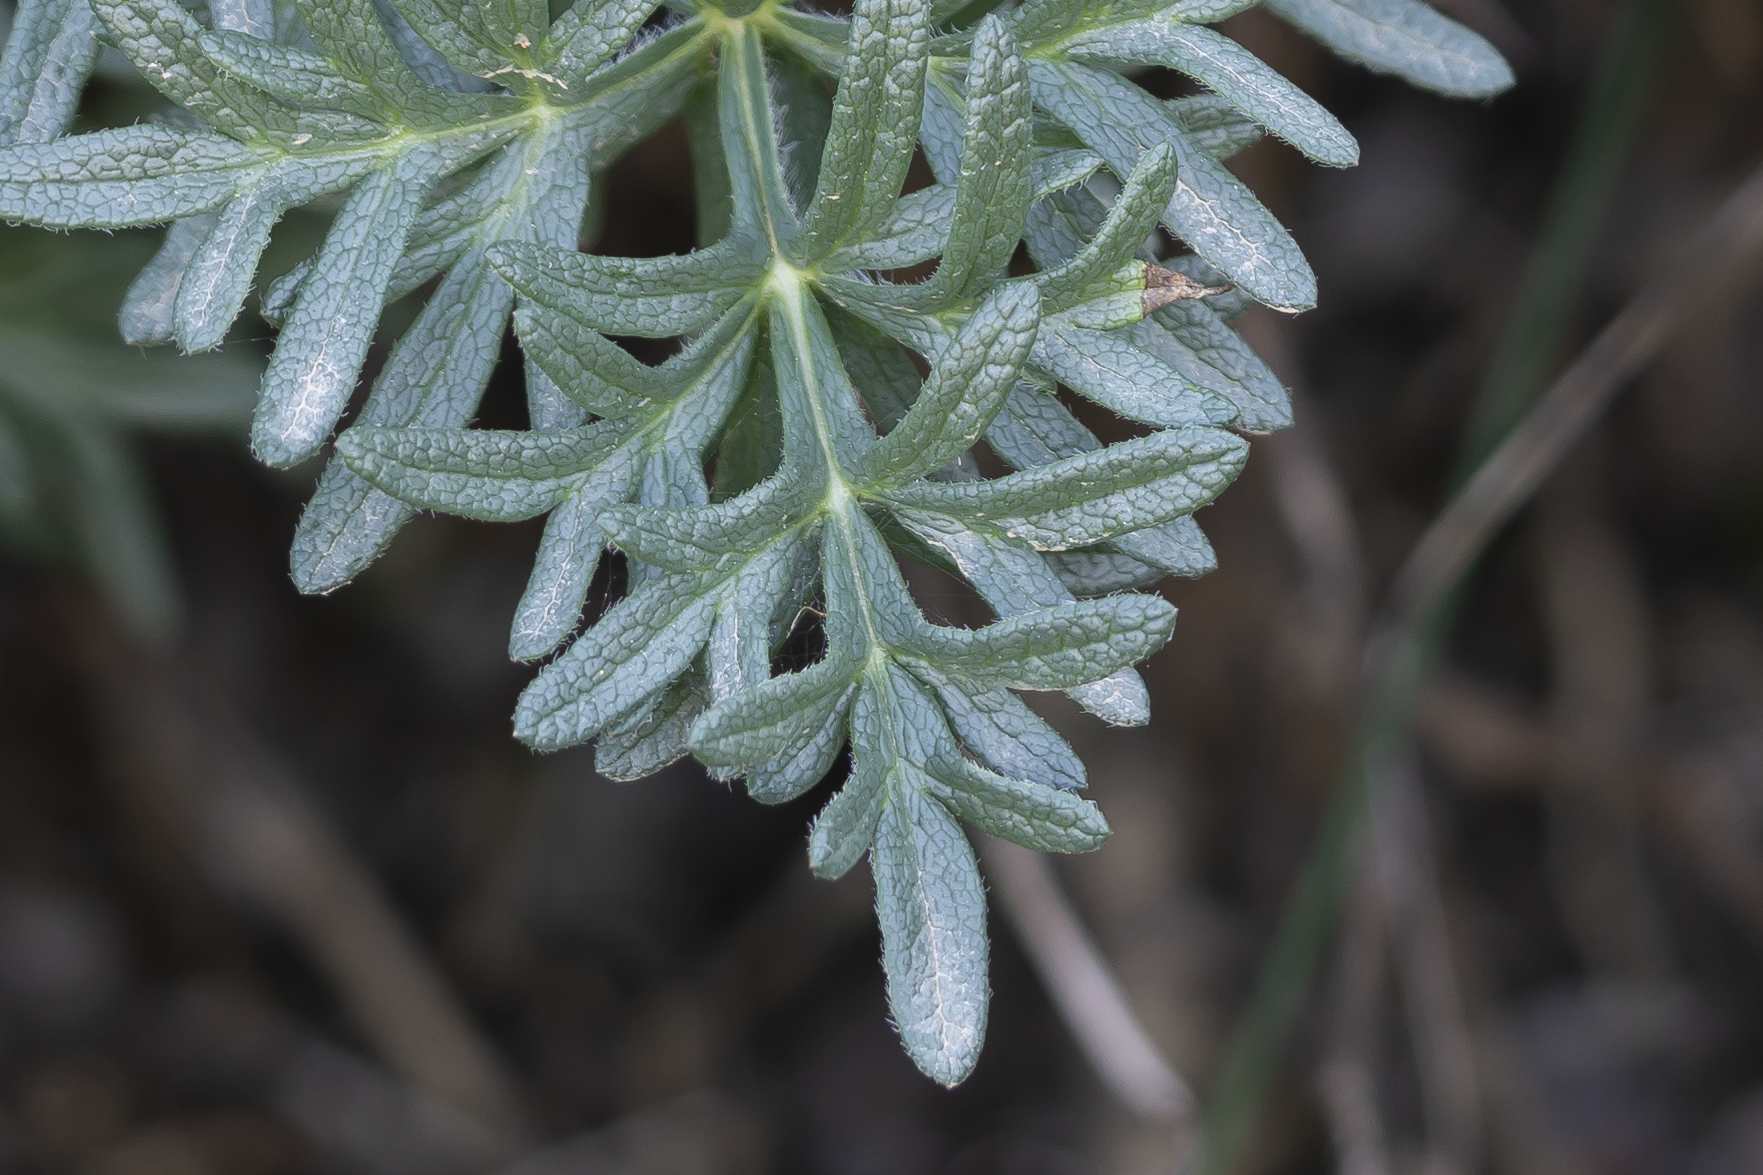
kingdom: Plantae
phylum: Tracheophyta
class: Magnoliopsida
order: Apiales
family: Apiaceae
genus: Thapsia
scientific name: Thapsia garganica
